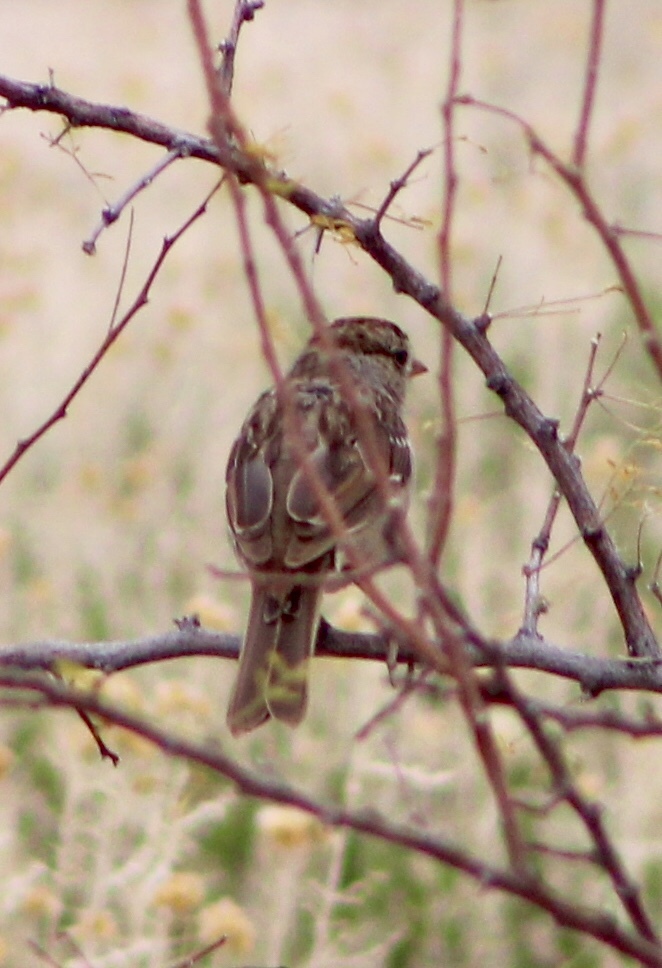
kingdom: Animalia
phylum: Chordata
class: Aves
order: Passeriformes
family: Passerellidae
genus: Zonotrichia
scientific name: Zonotrichia leucophrys
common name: White-crowned sparrow
